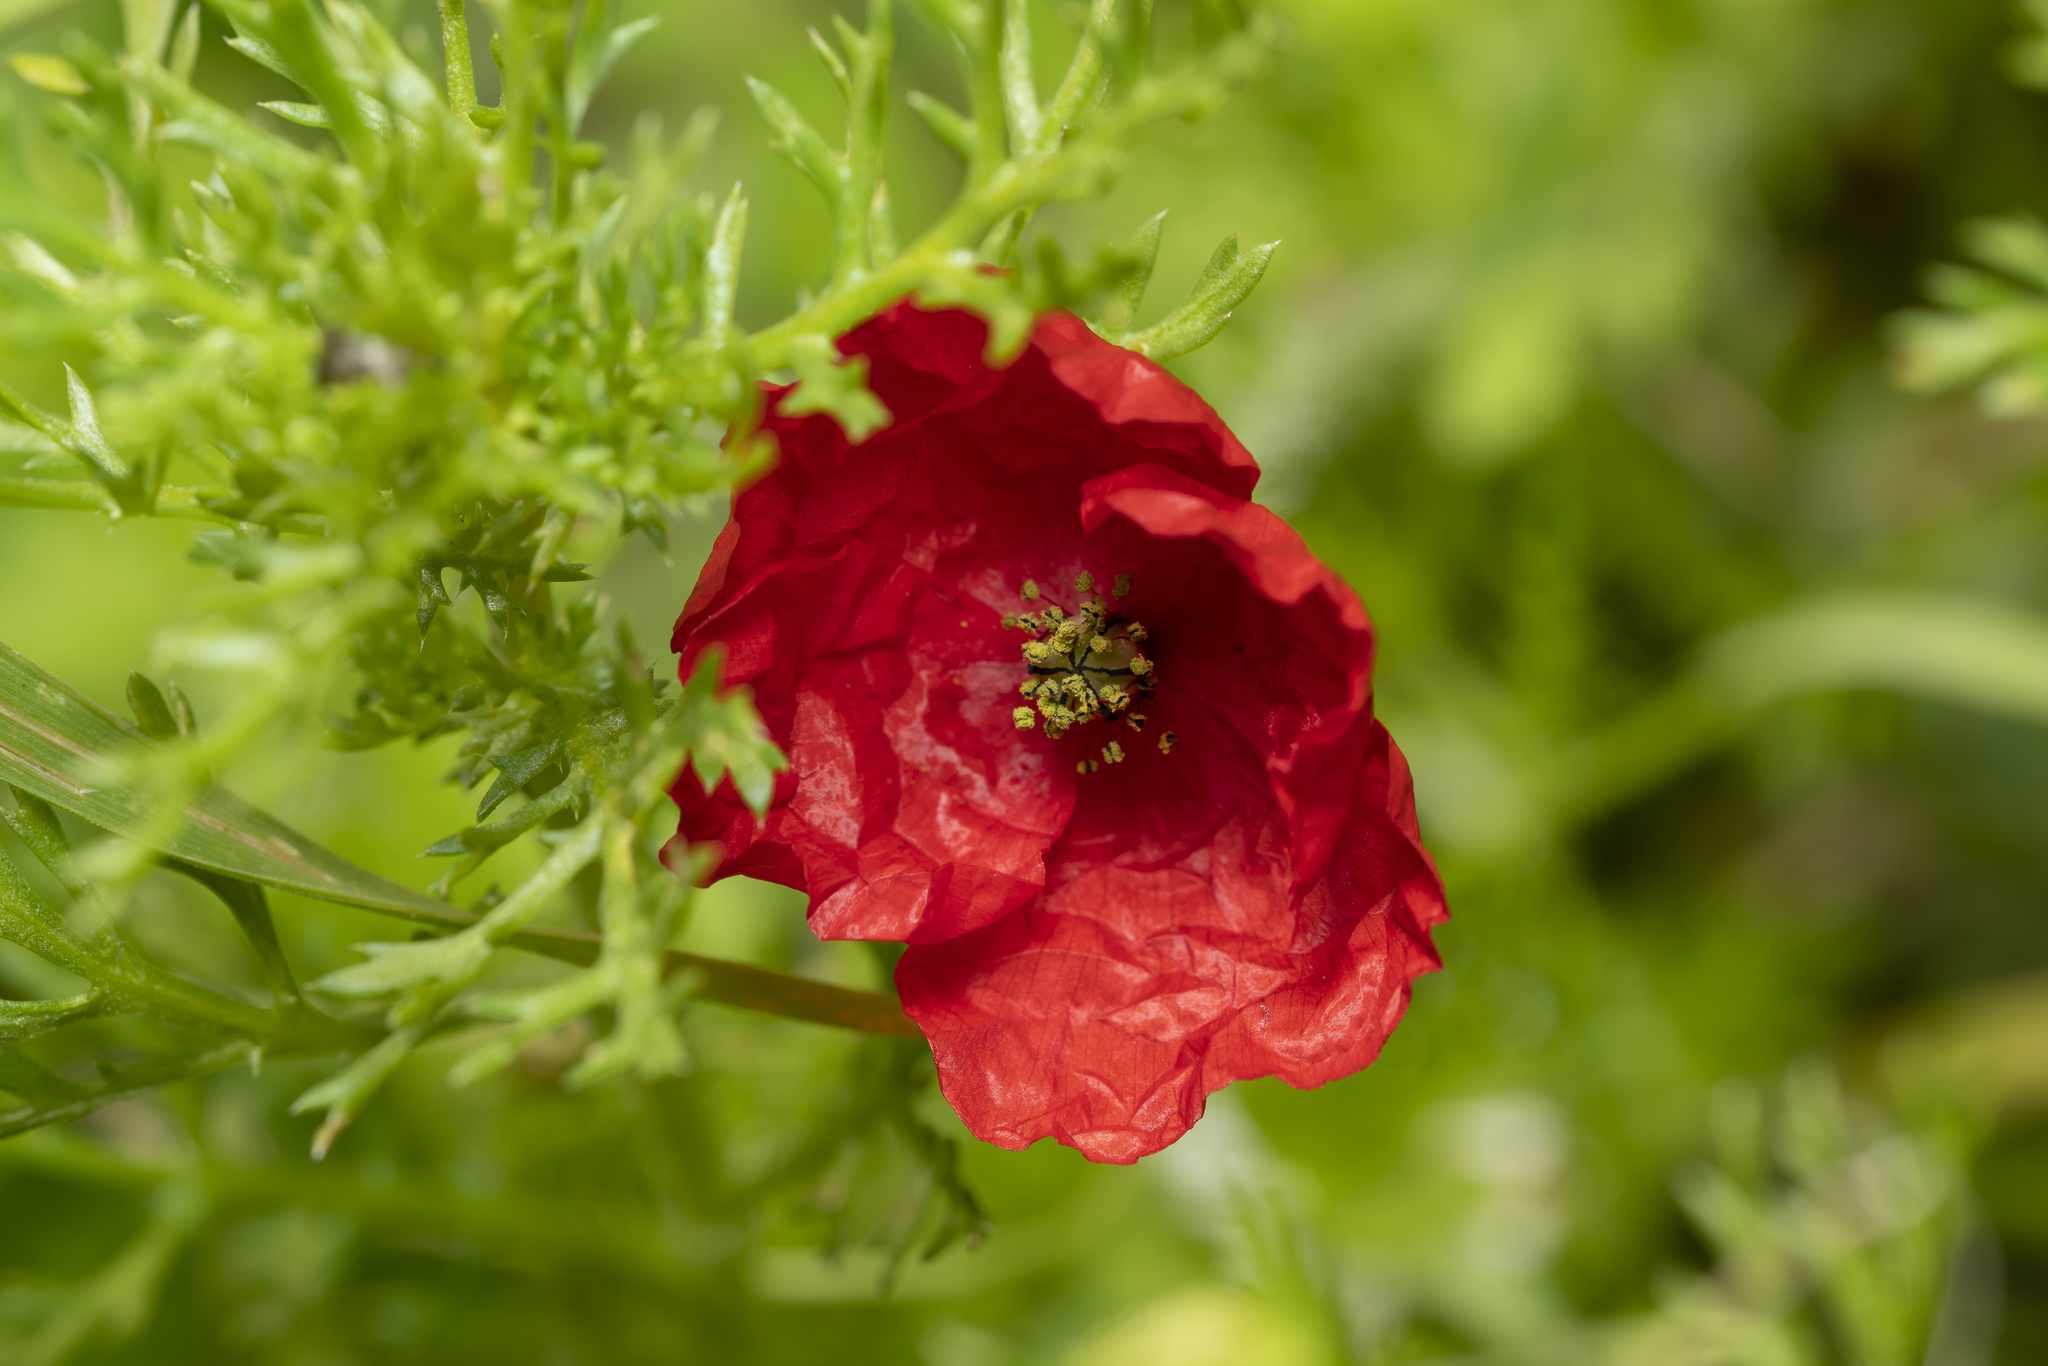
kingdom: Plantae
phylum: Tracheophyta
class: Magnoliopsida
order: Ranunculales
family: Papaveraceae
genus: Papaver
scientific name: Papaver rhoeas
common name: Corn poppy
